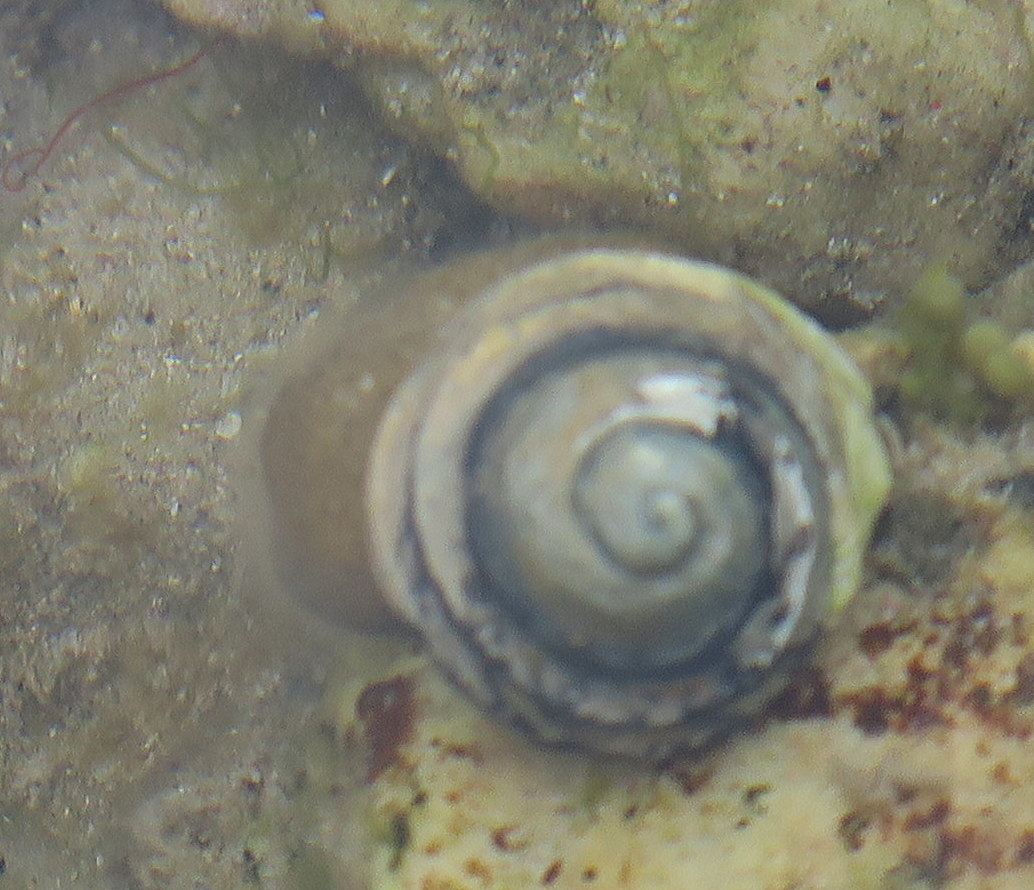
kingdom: Animalia
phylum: Mollusca
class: Gastropoda
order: Trochida
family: Trochidae
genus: Austrocochlea
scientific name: Austrocochlea constricta
